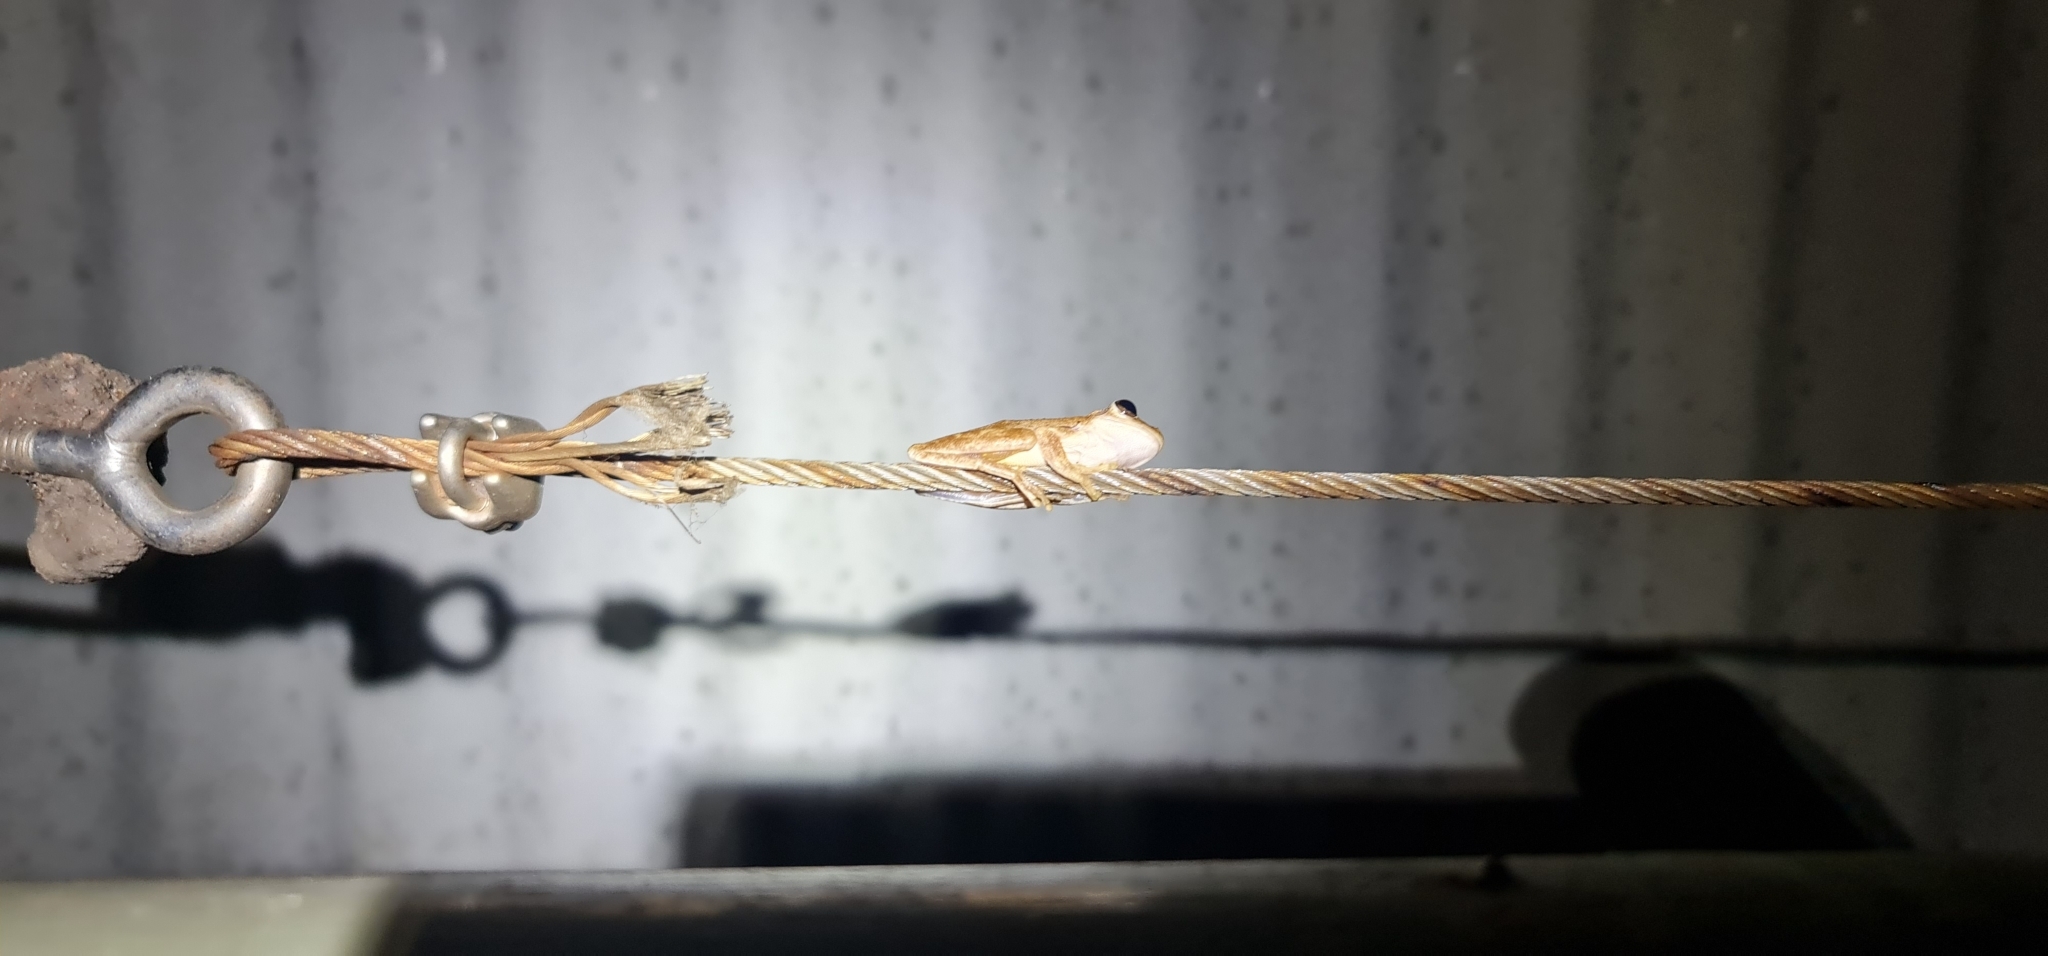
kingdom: Animalia
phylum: Chordata
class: Amphibia
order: Anura
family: Pelodryadidae
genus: Litoria
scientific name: Litoria
